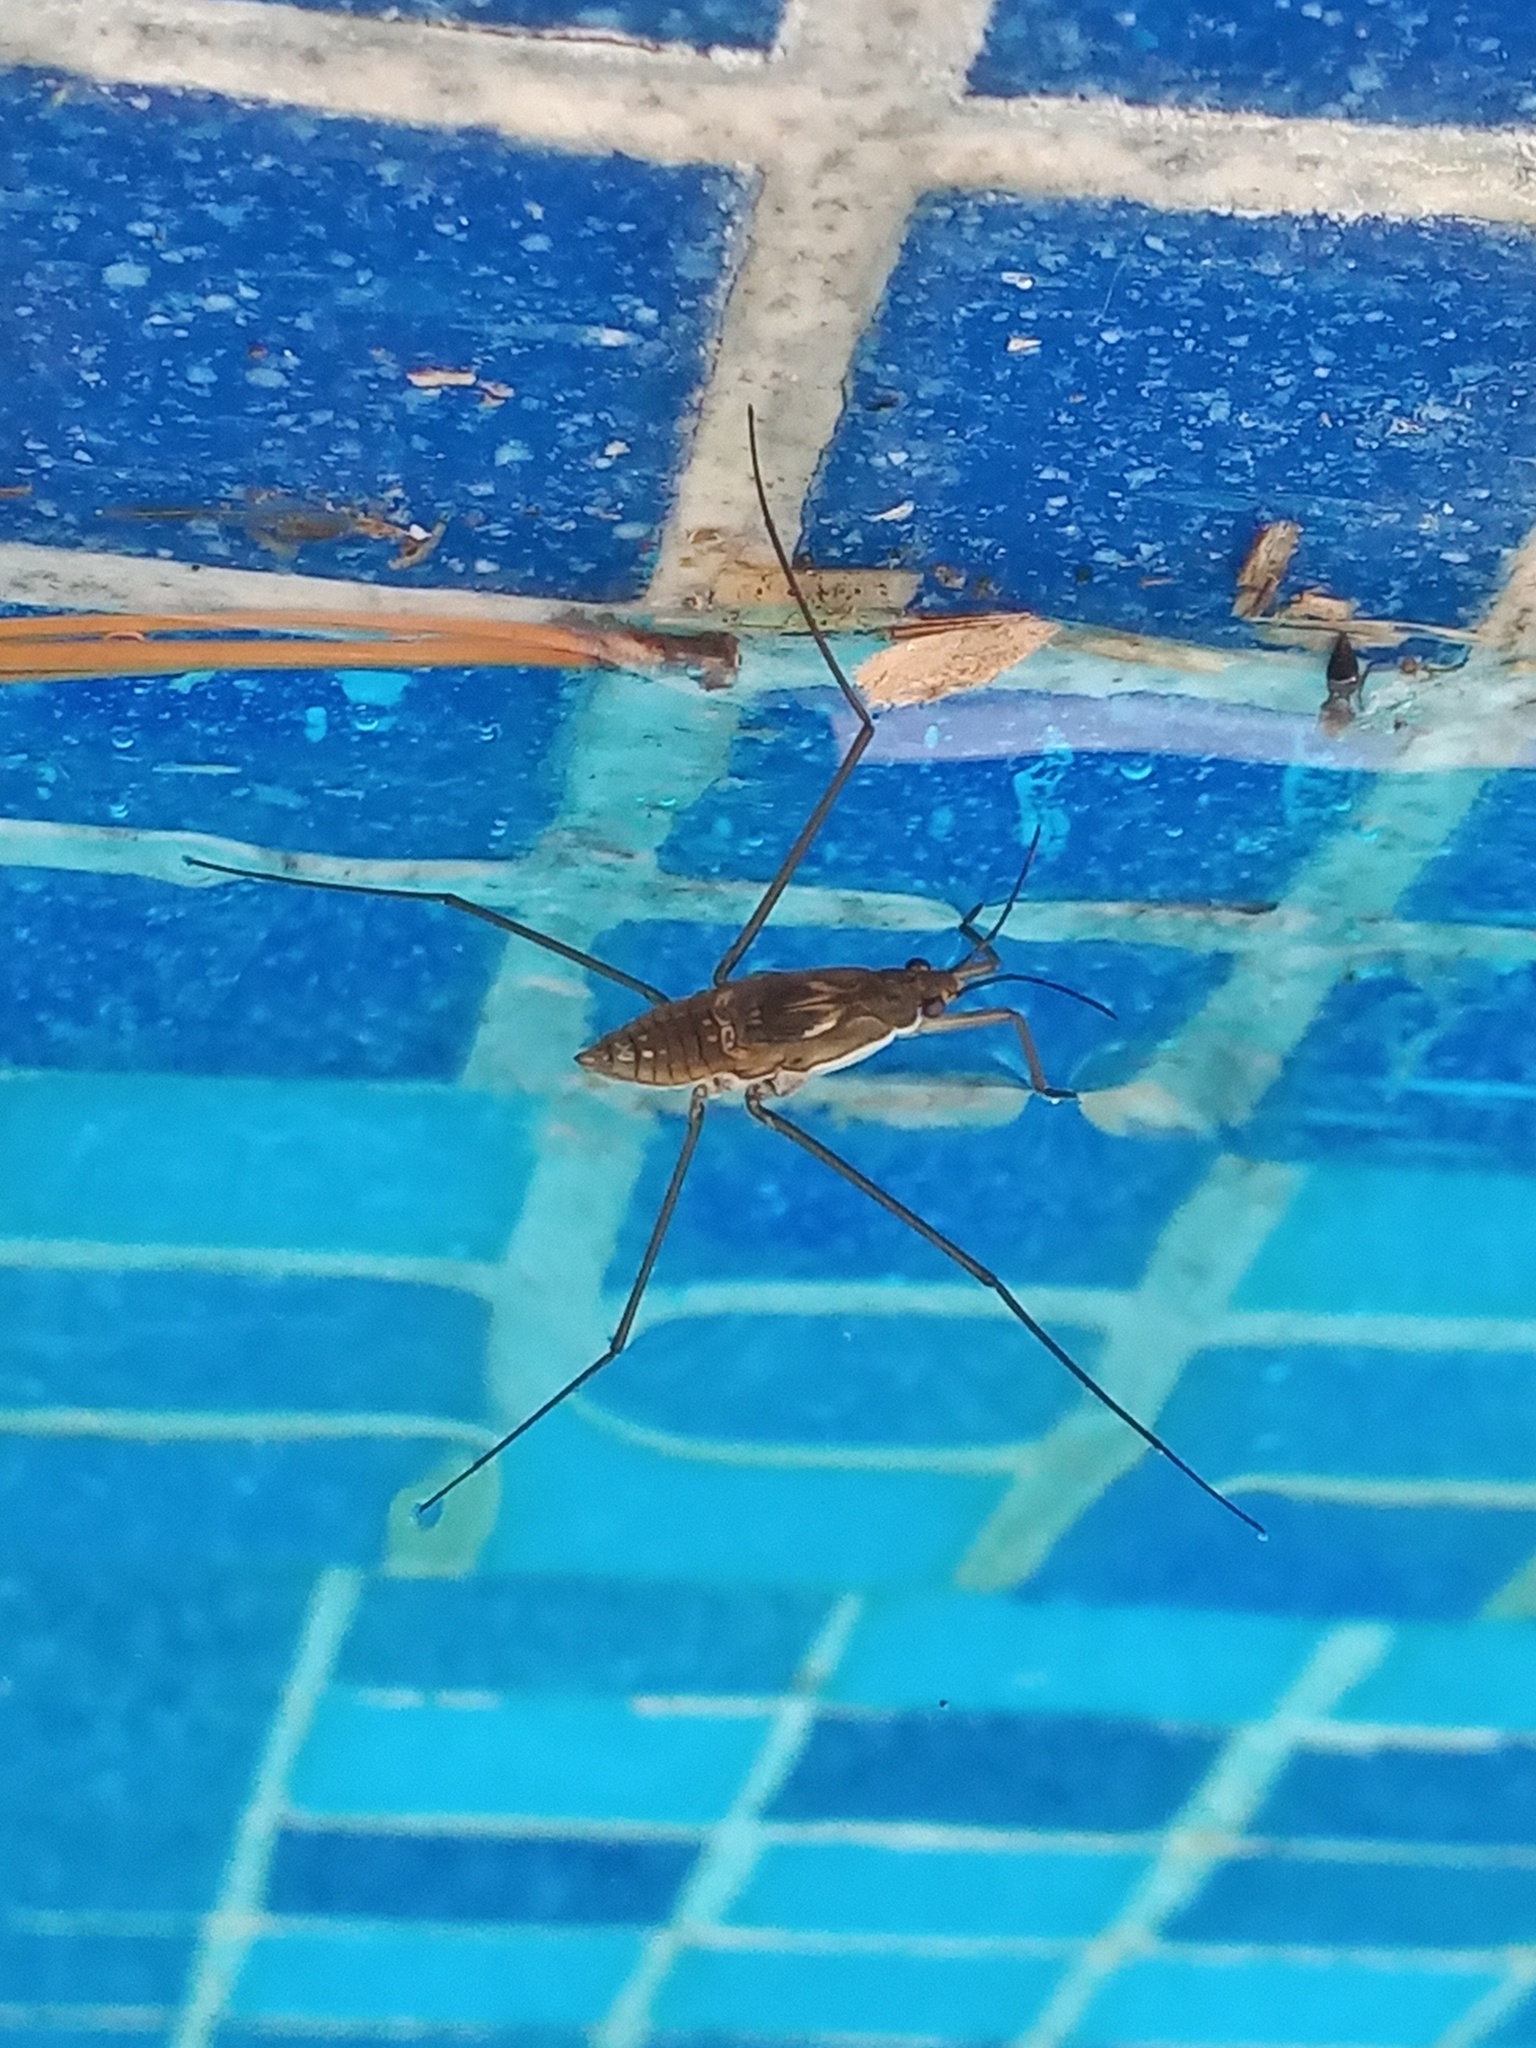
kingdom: Animalia
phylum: Arthropoda
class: Insecta
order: Hemiptera
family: Gerridae
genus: Aquarius
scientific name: Aquarius
